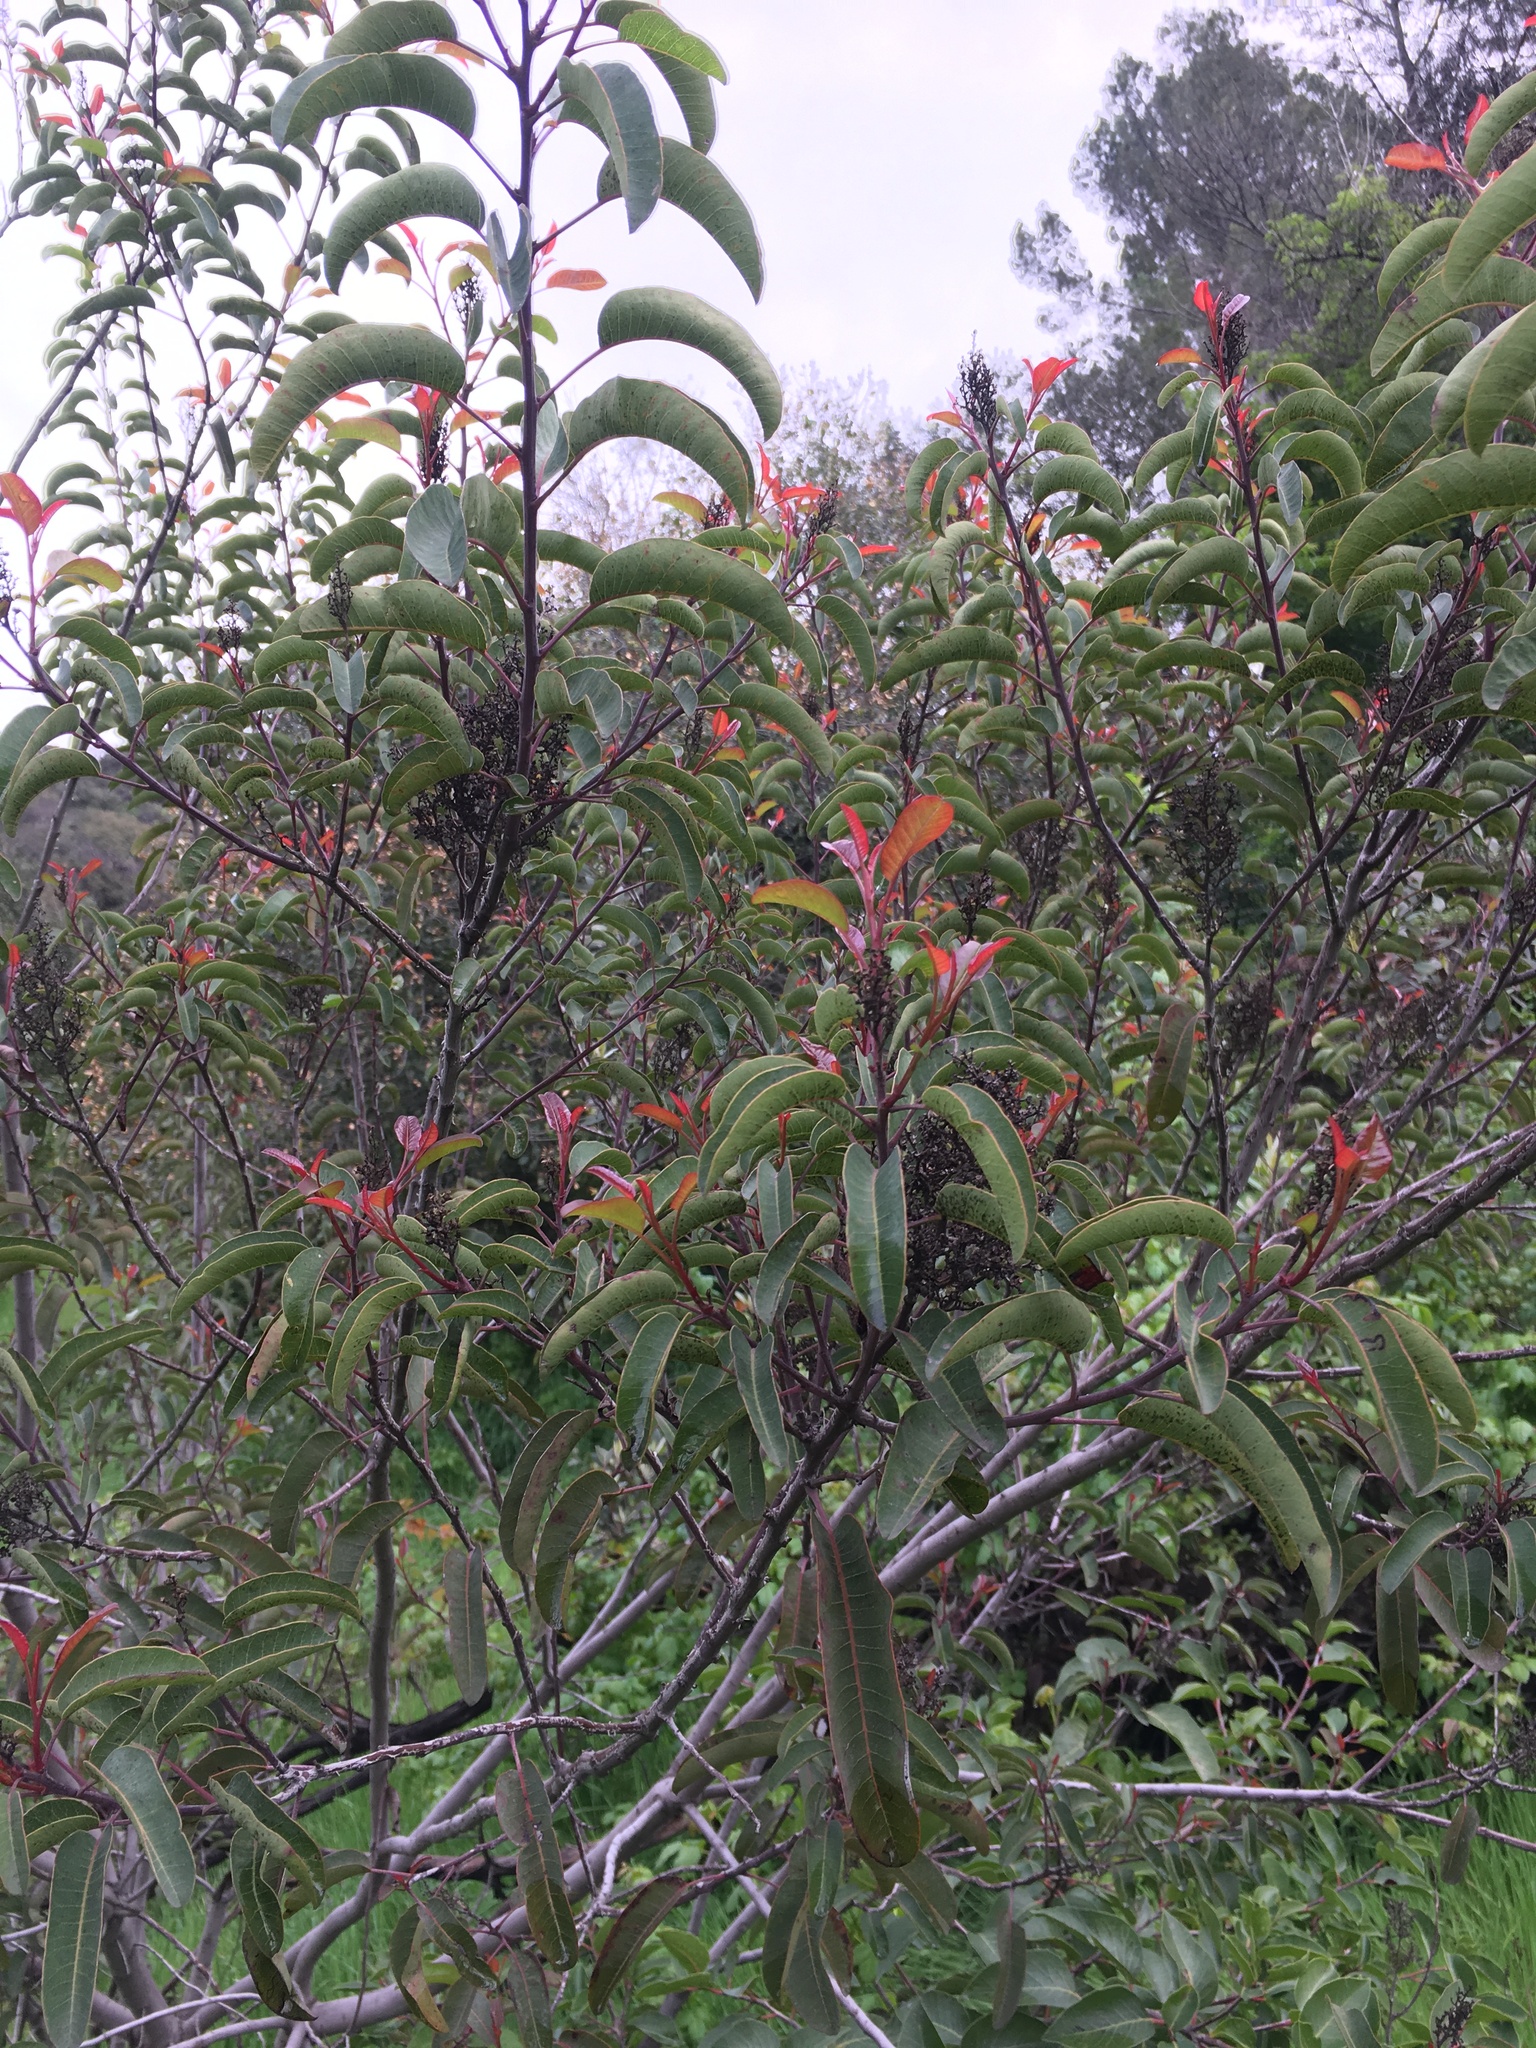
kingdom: Plantae
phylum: Tracheophyta
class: Magnoliopsida
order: Sapindales
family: Anacardiaceae
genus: Malosma
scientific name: Malosma laurina
